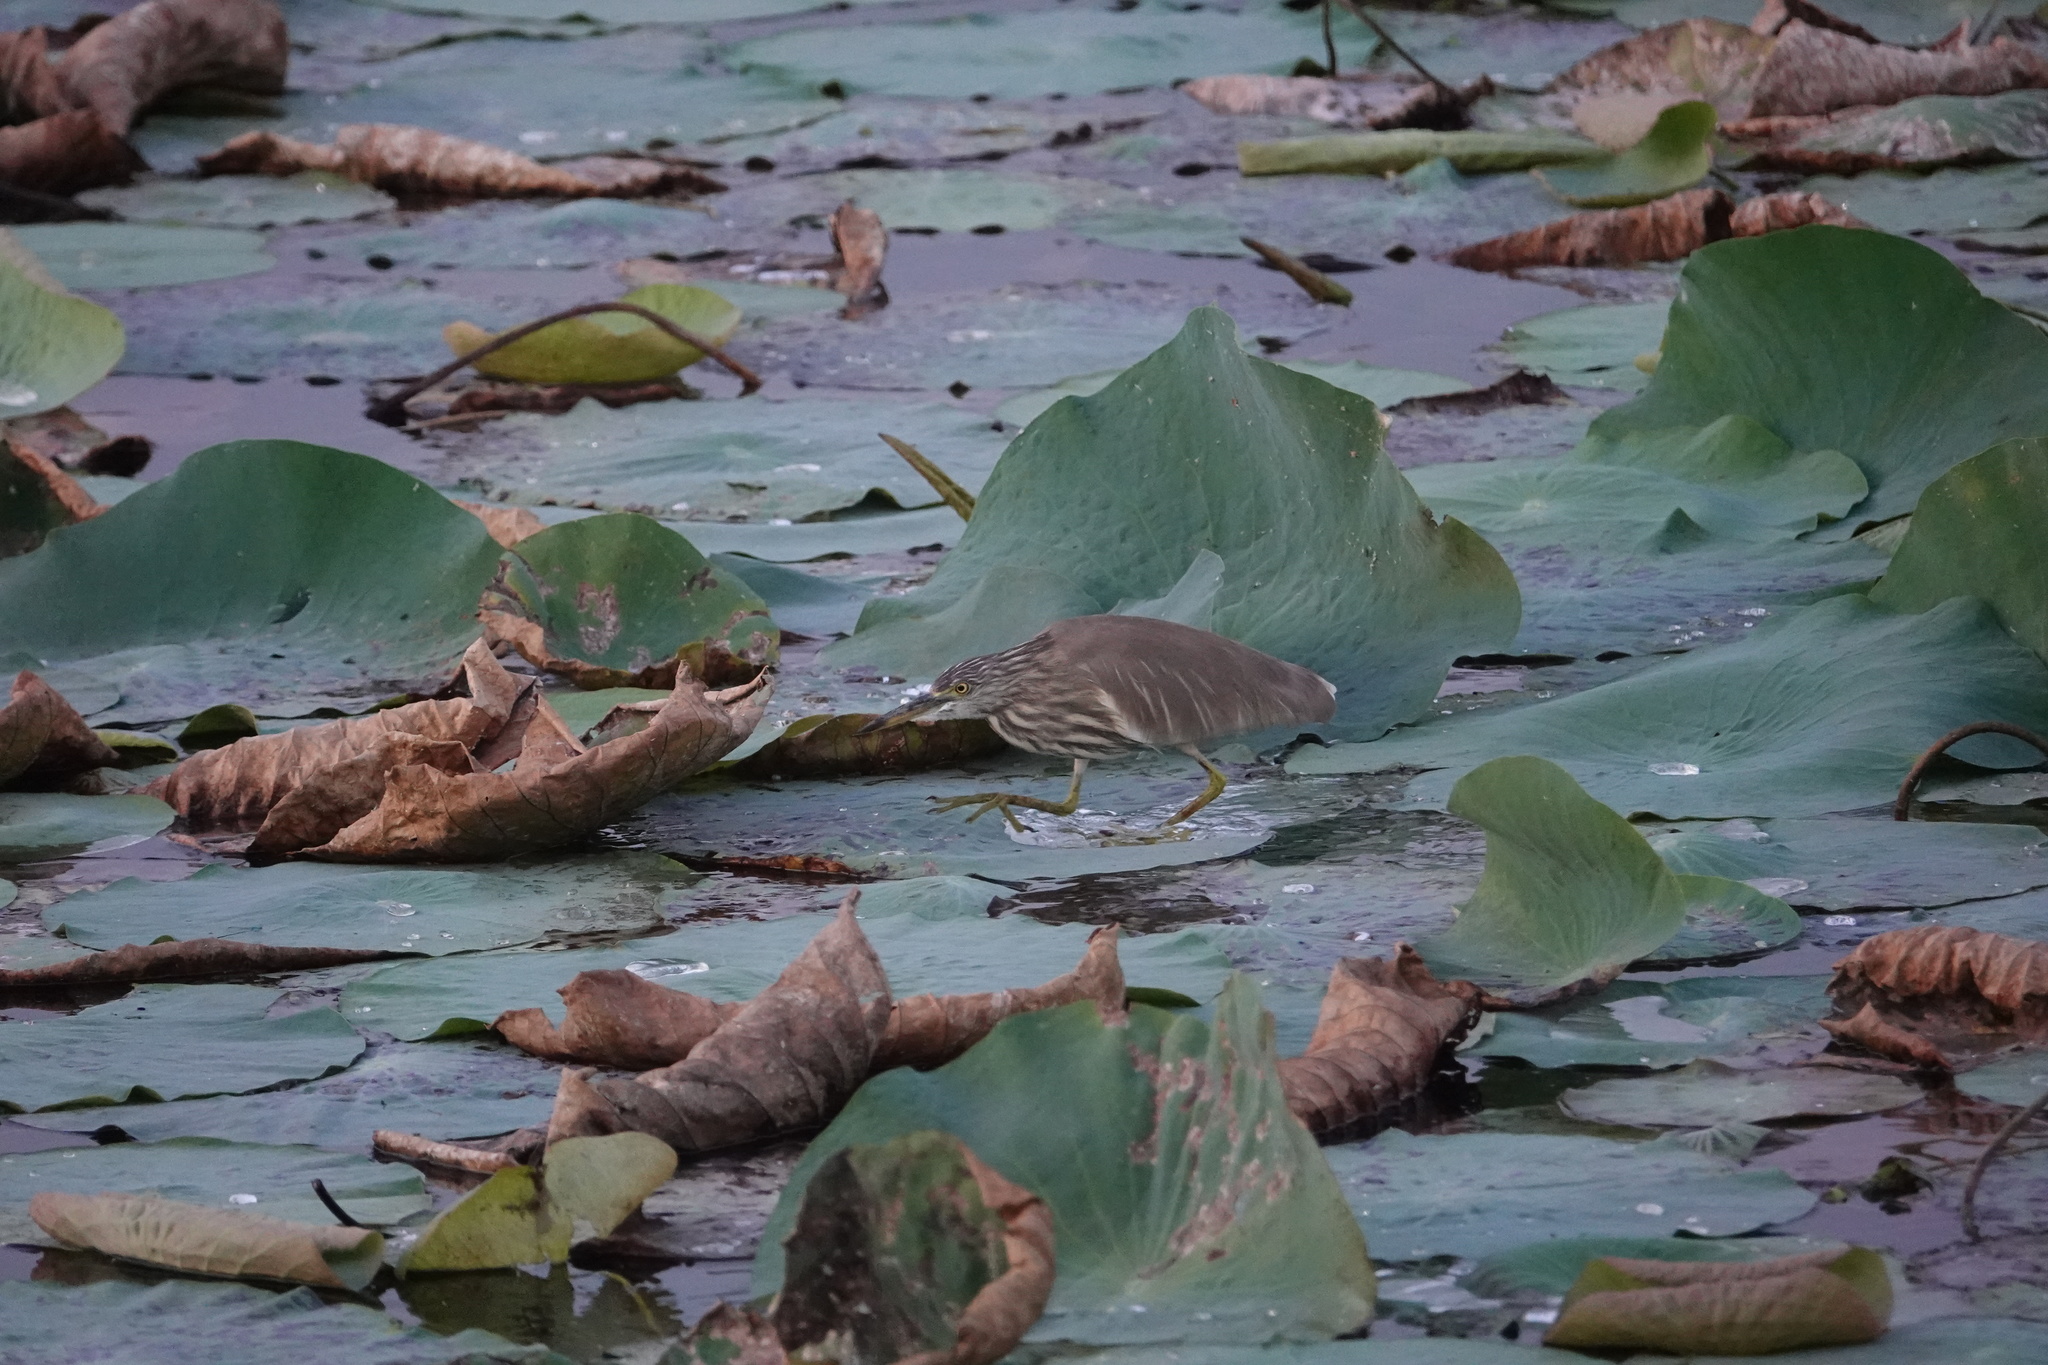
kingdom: Animalia
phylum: Chordata
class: Aves
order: Pelecaniformes
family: Ardeidae
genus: Ardeola
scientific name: Ardeola grayii
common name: Indian pond heron
